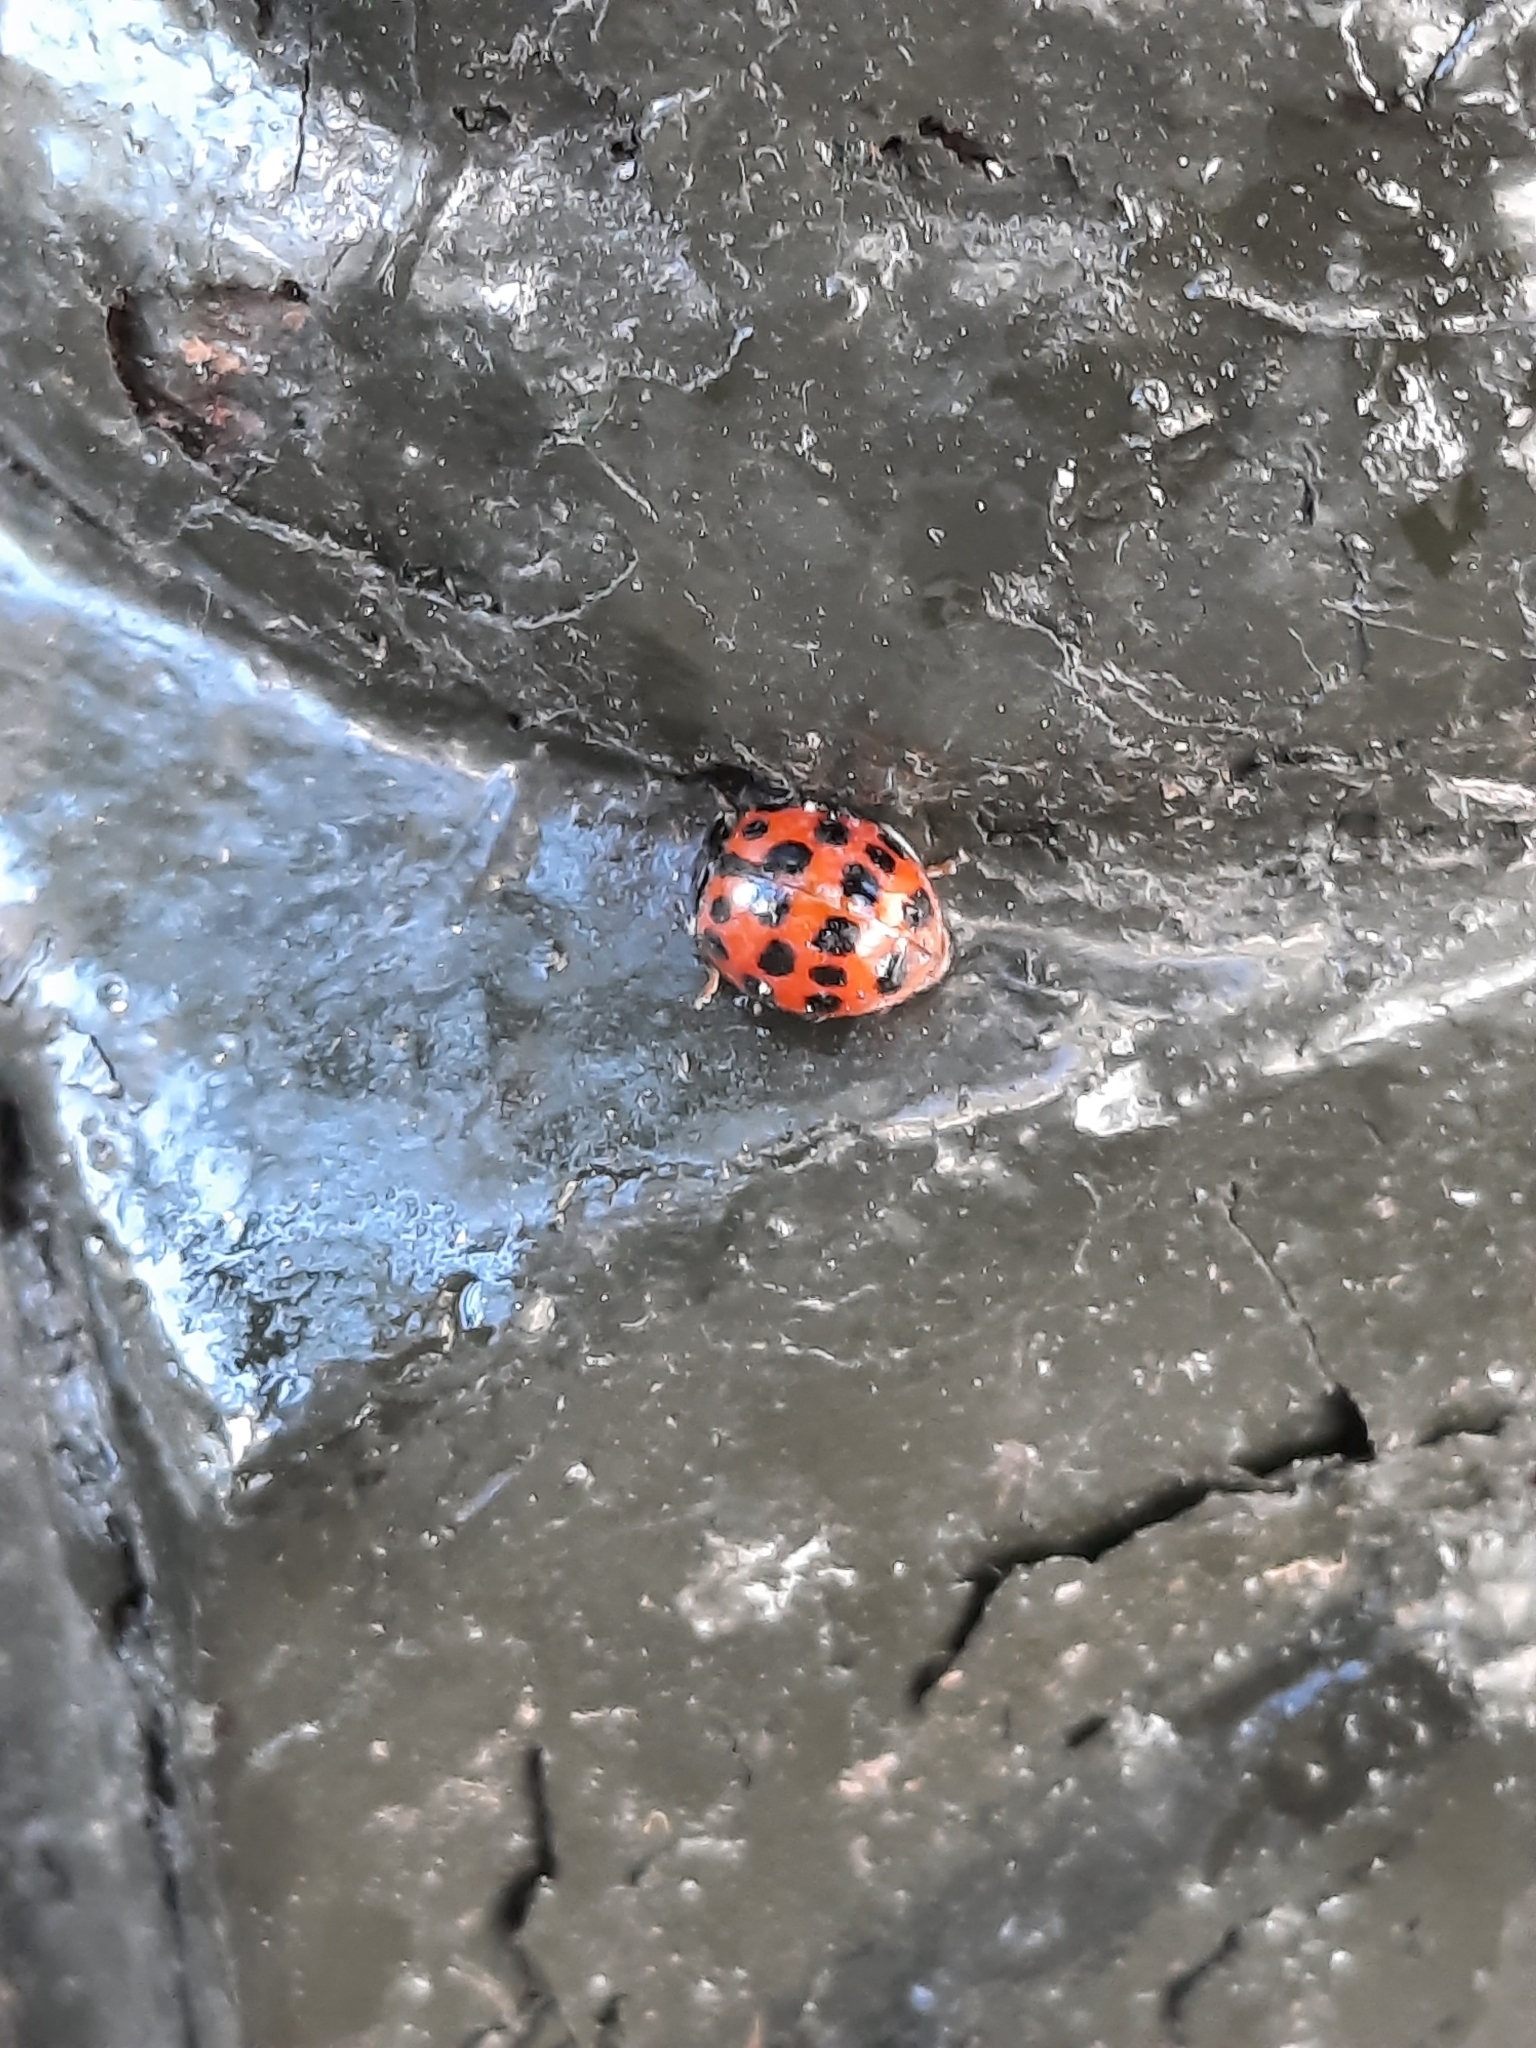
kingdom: Animalia
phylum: Arthropoda
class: Insecta
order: Coleoptera
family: Coccinellidae
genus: Harmonia
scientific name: Harmonia axyridis
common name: Harlequin ladybird
